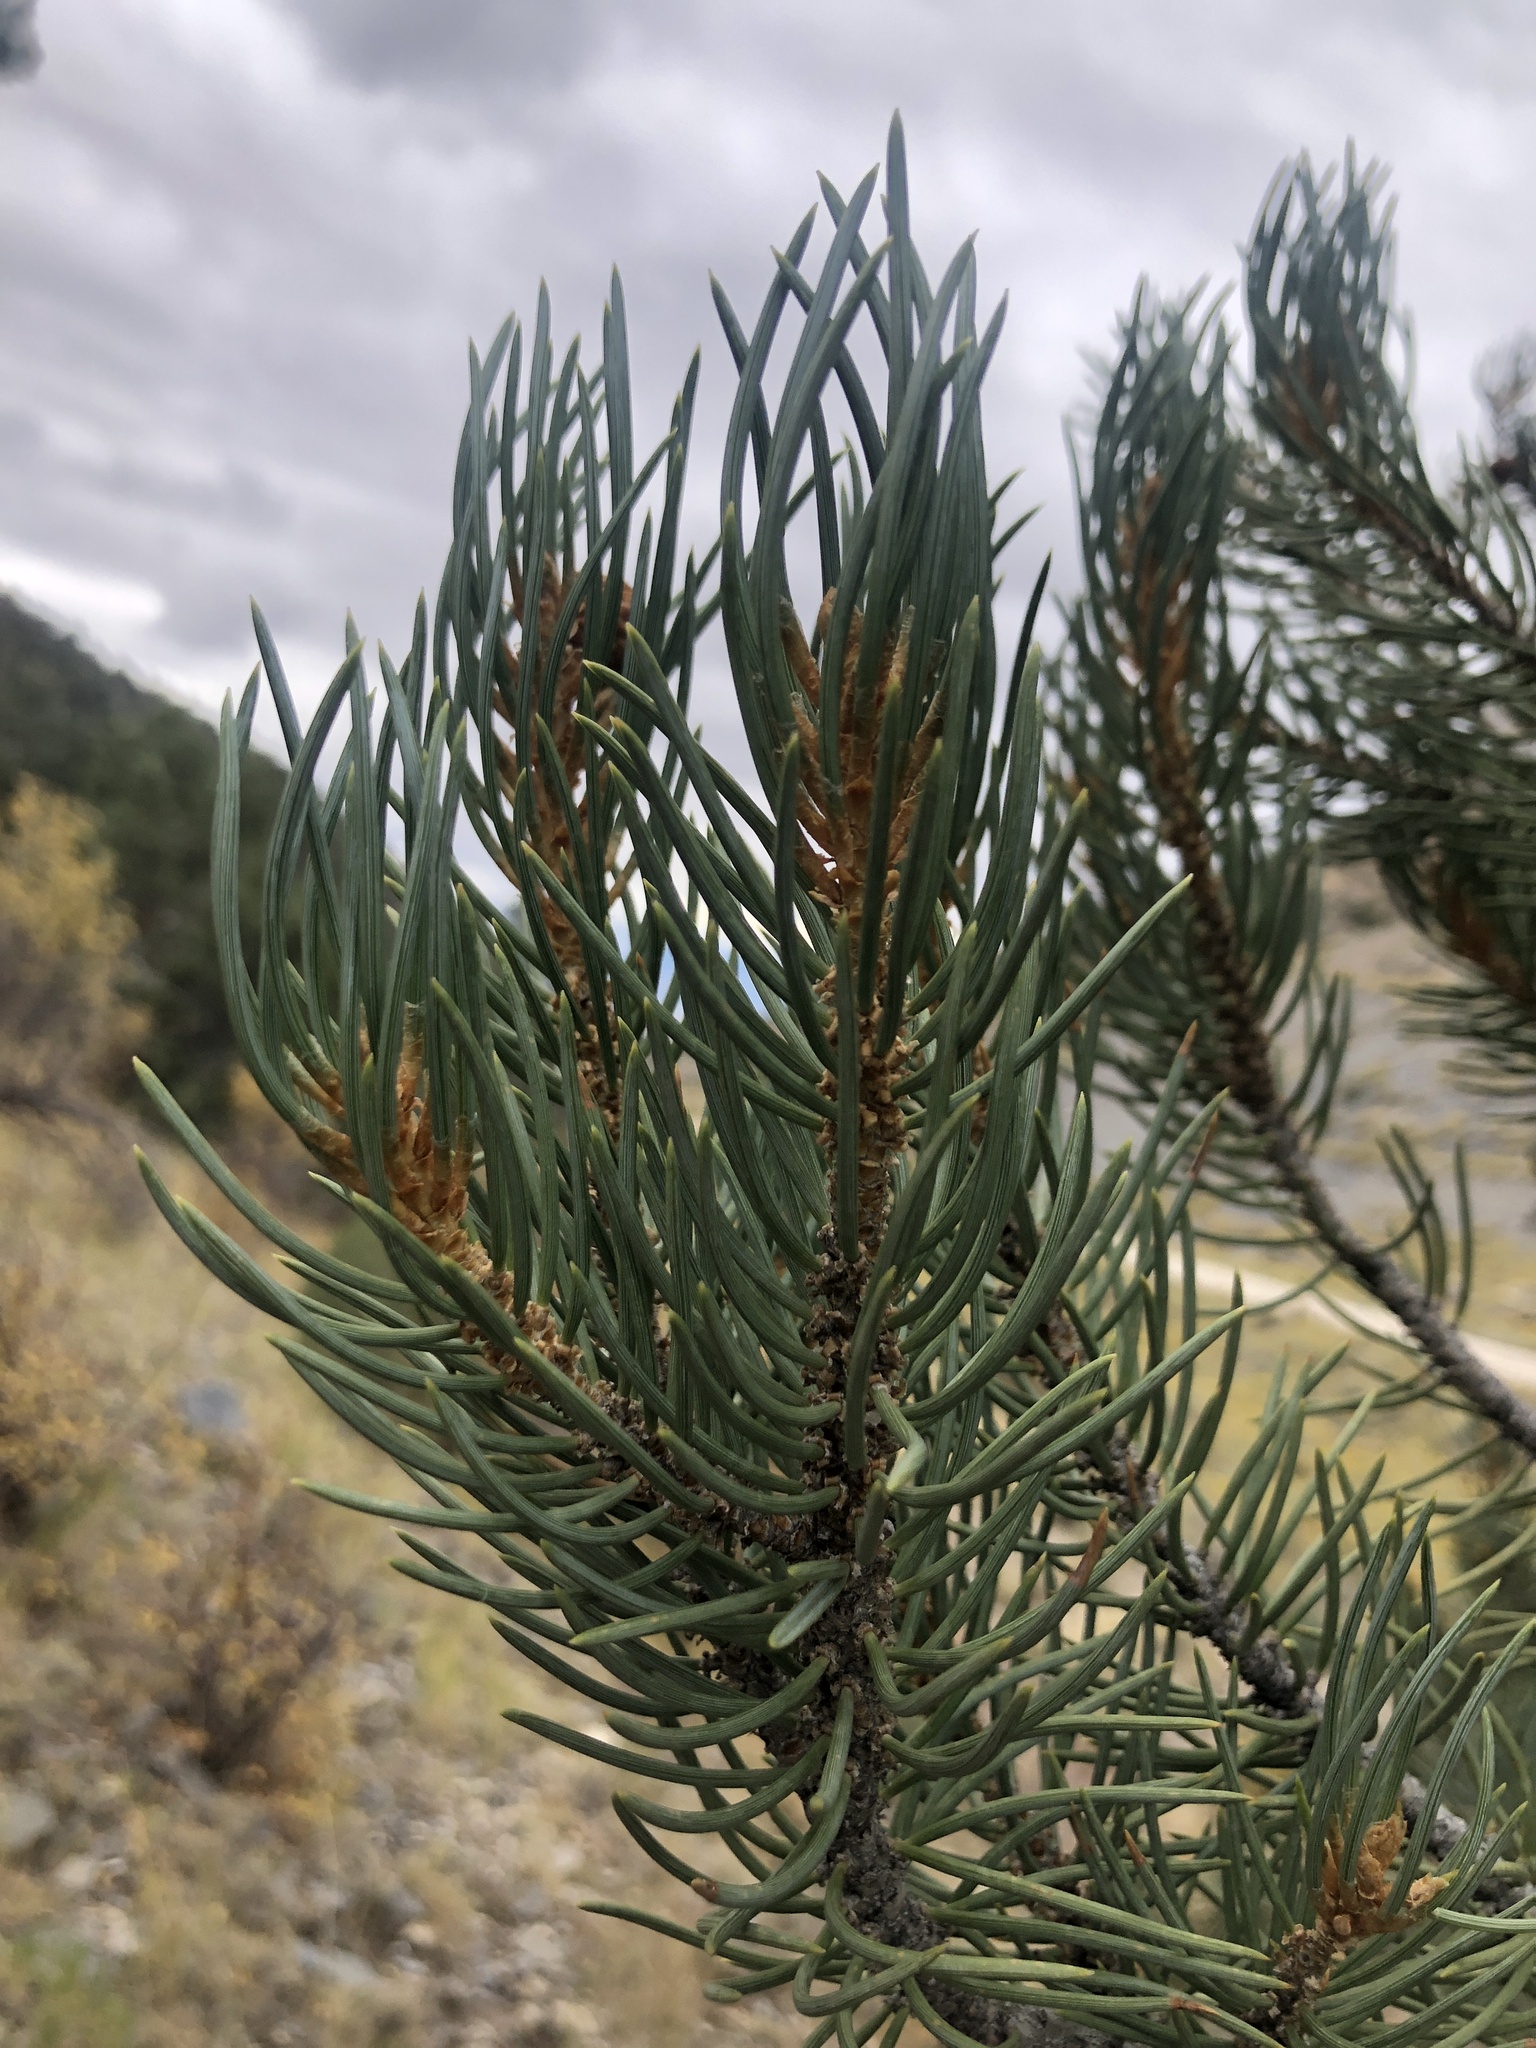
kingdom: Plantae
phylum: Tracheophyta
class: Pinopsida
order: Pinales
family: Pinaceae
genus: Pinus
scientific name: Pinus monophylla
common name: One-leaved nut pine
